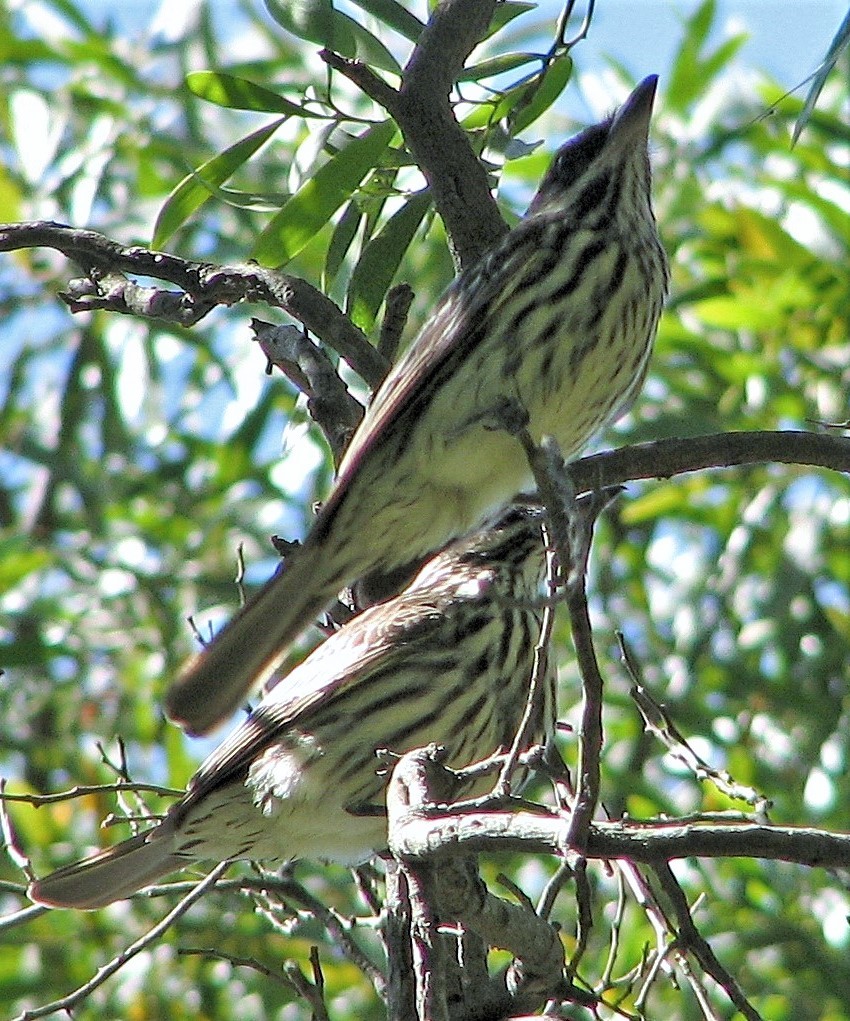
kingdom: Animalia
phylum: Chordata
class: Aves
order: Passeriformes
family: Tyrannidae
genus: Myiodynastes
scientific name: Myiodynastes maculatus
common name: Streaked flycatcher
